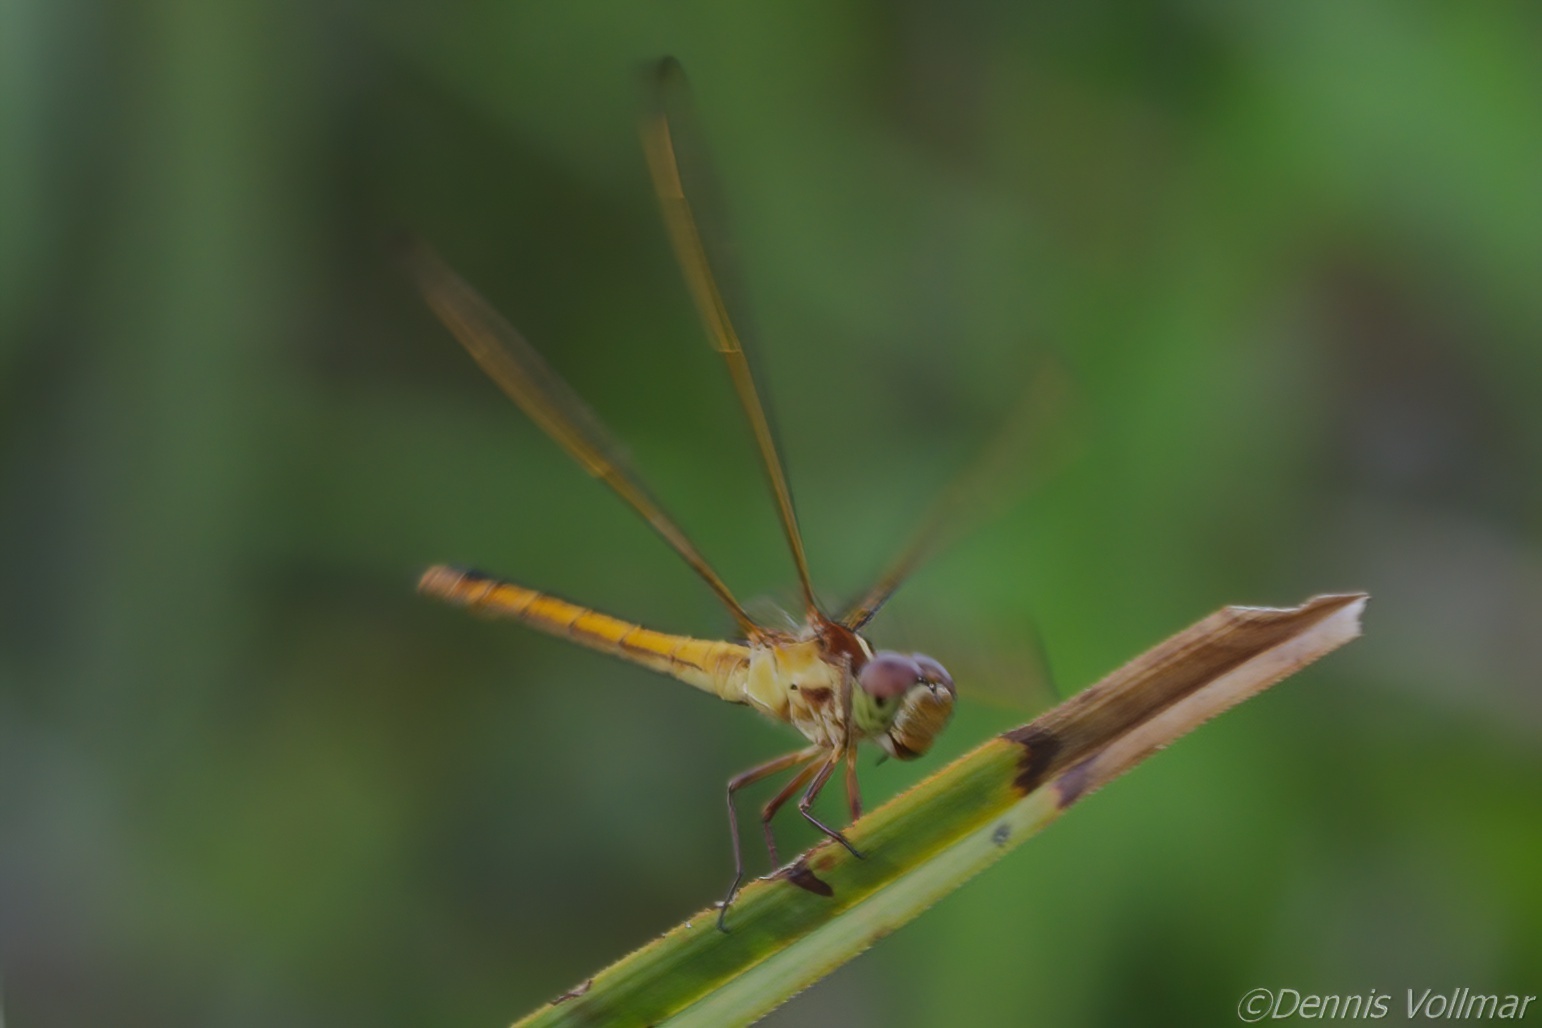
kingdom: Animalia
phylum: Arthropoda
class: Insecta
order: Odonata
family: Libellulidae
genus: Libellula
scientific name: Libellula needhami
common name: Needham's skimmer
